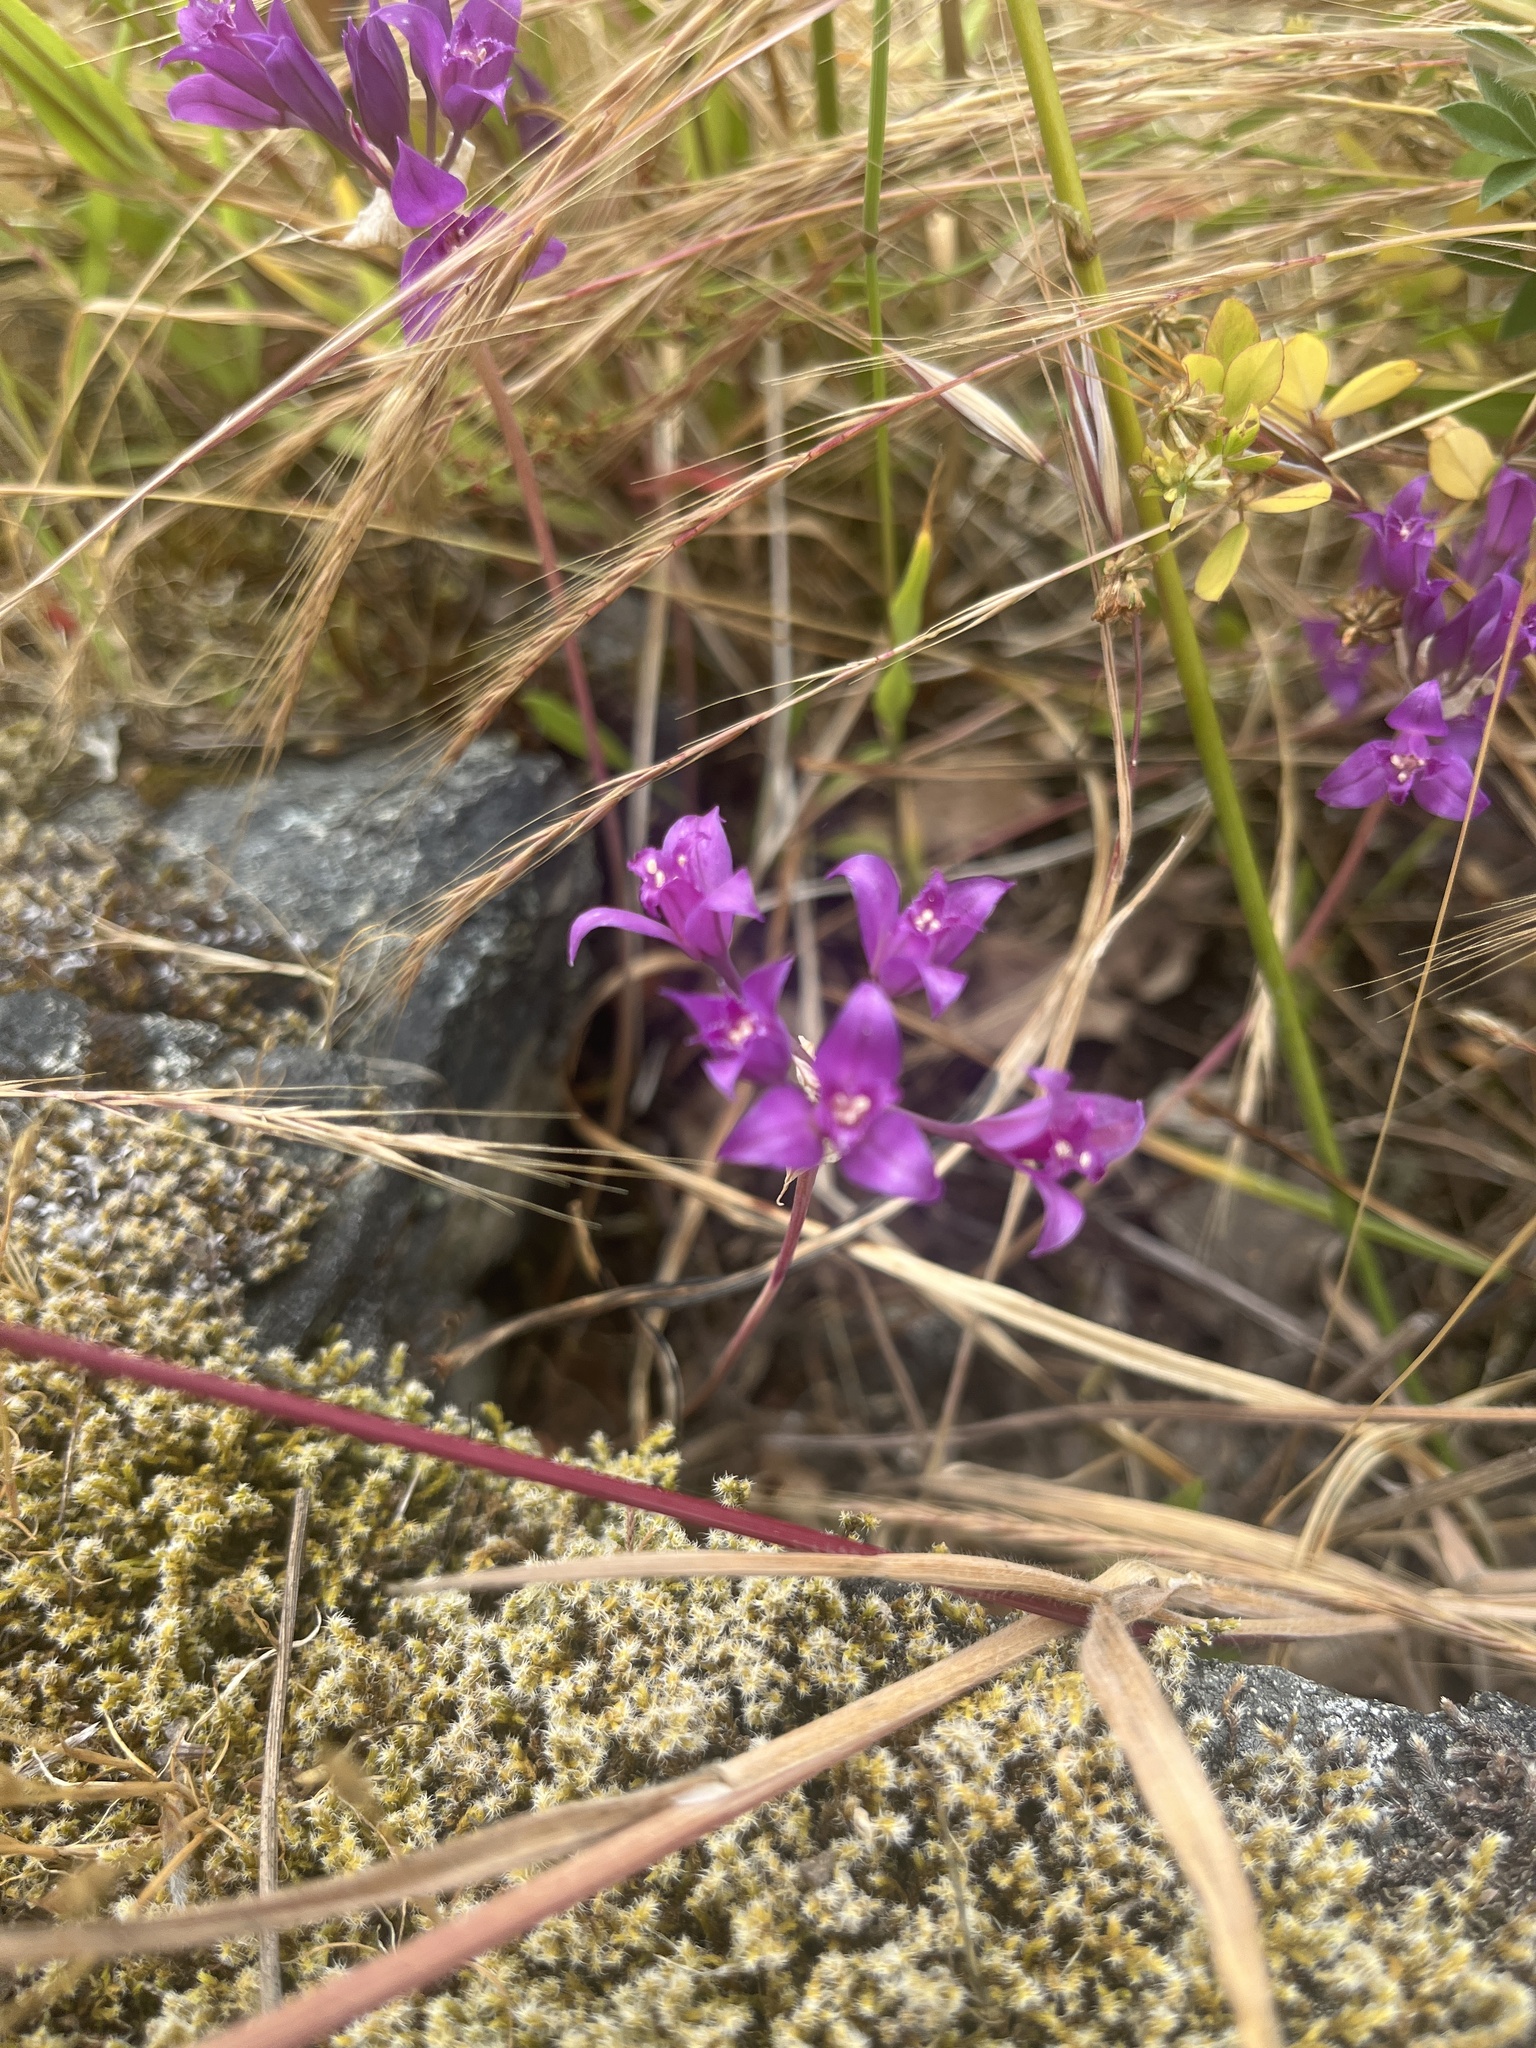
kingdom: Plantae
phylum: Tracheophyta
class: Liliopsida
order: Asparagales
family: Amaryllidaceae
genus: Allium
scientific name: Allium acuminatum
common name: Hooker's onion
